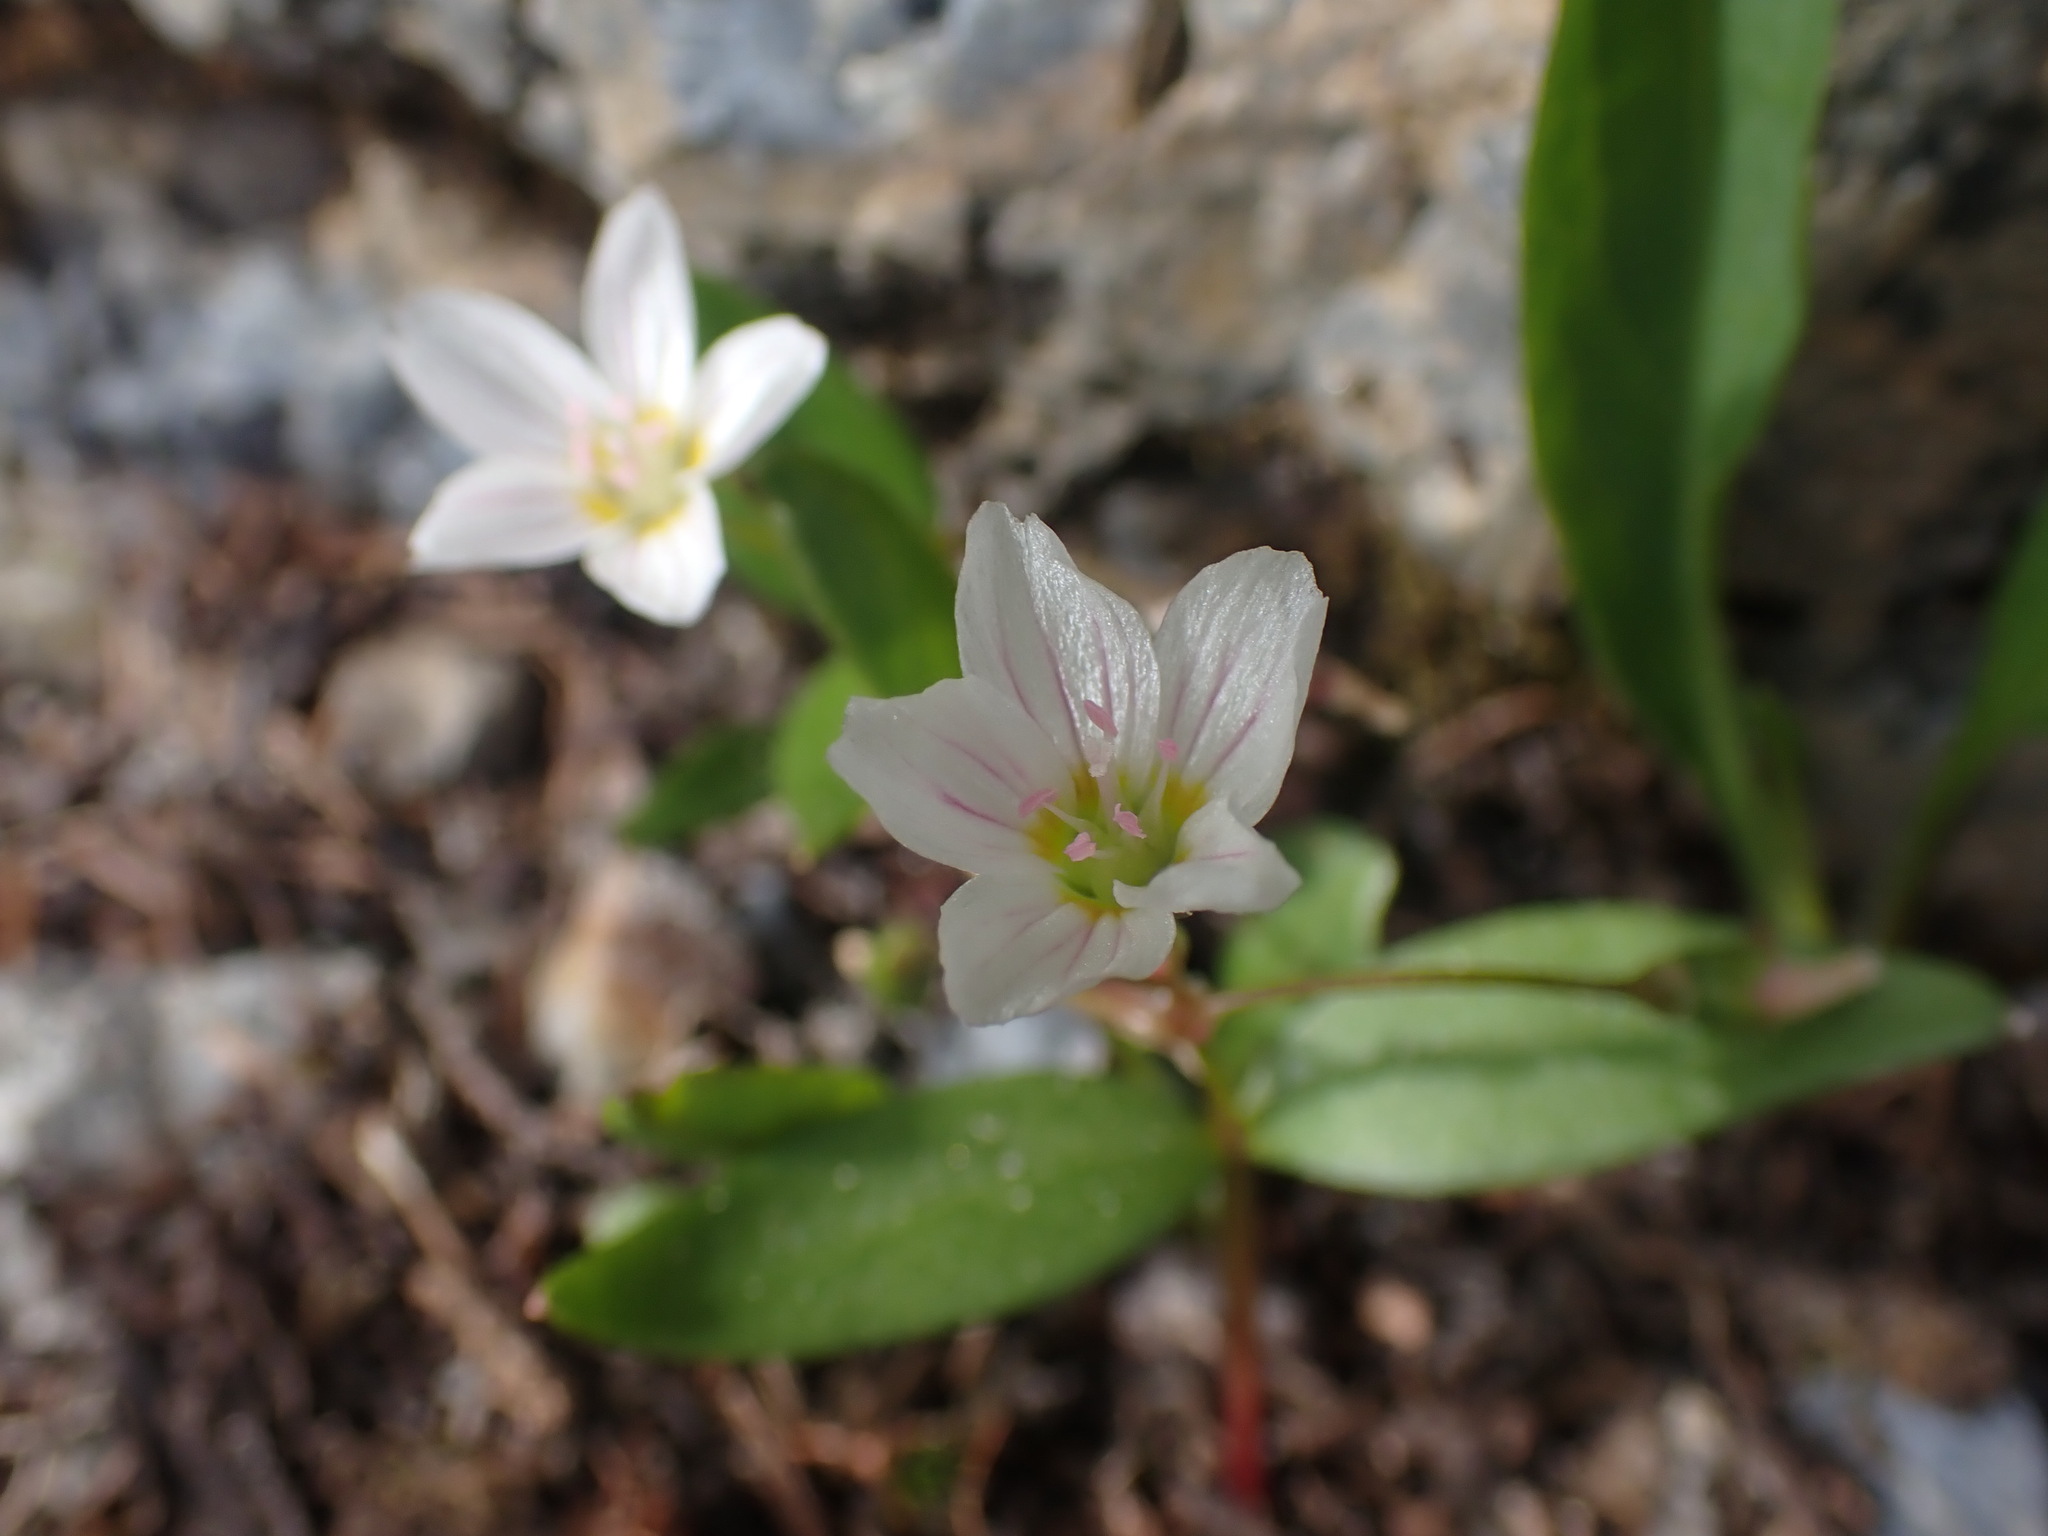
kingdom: Plantae
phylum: Tracheophyta
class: Magnoliopsida
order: Caryophyllales
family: Montiaceae
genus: Claytonia
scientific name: Claytonia lanceolata
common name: Western spring-beauty
